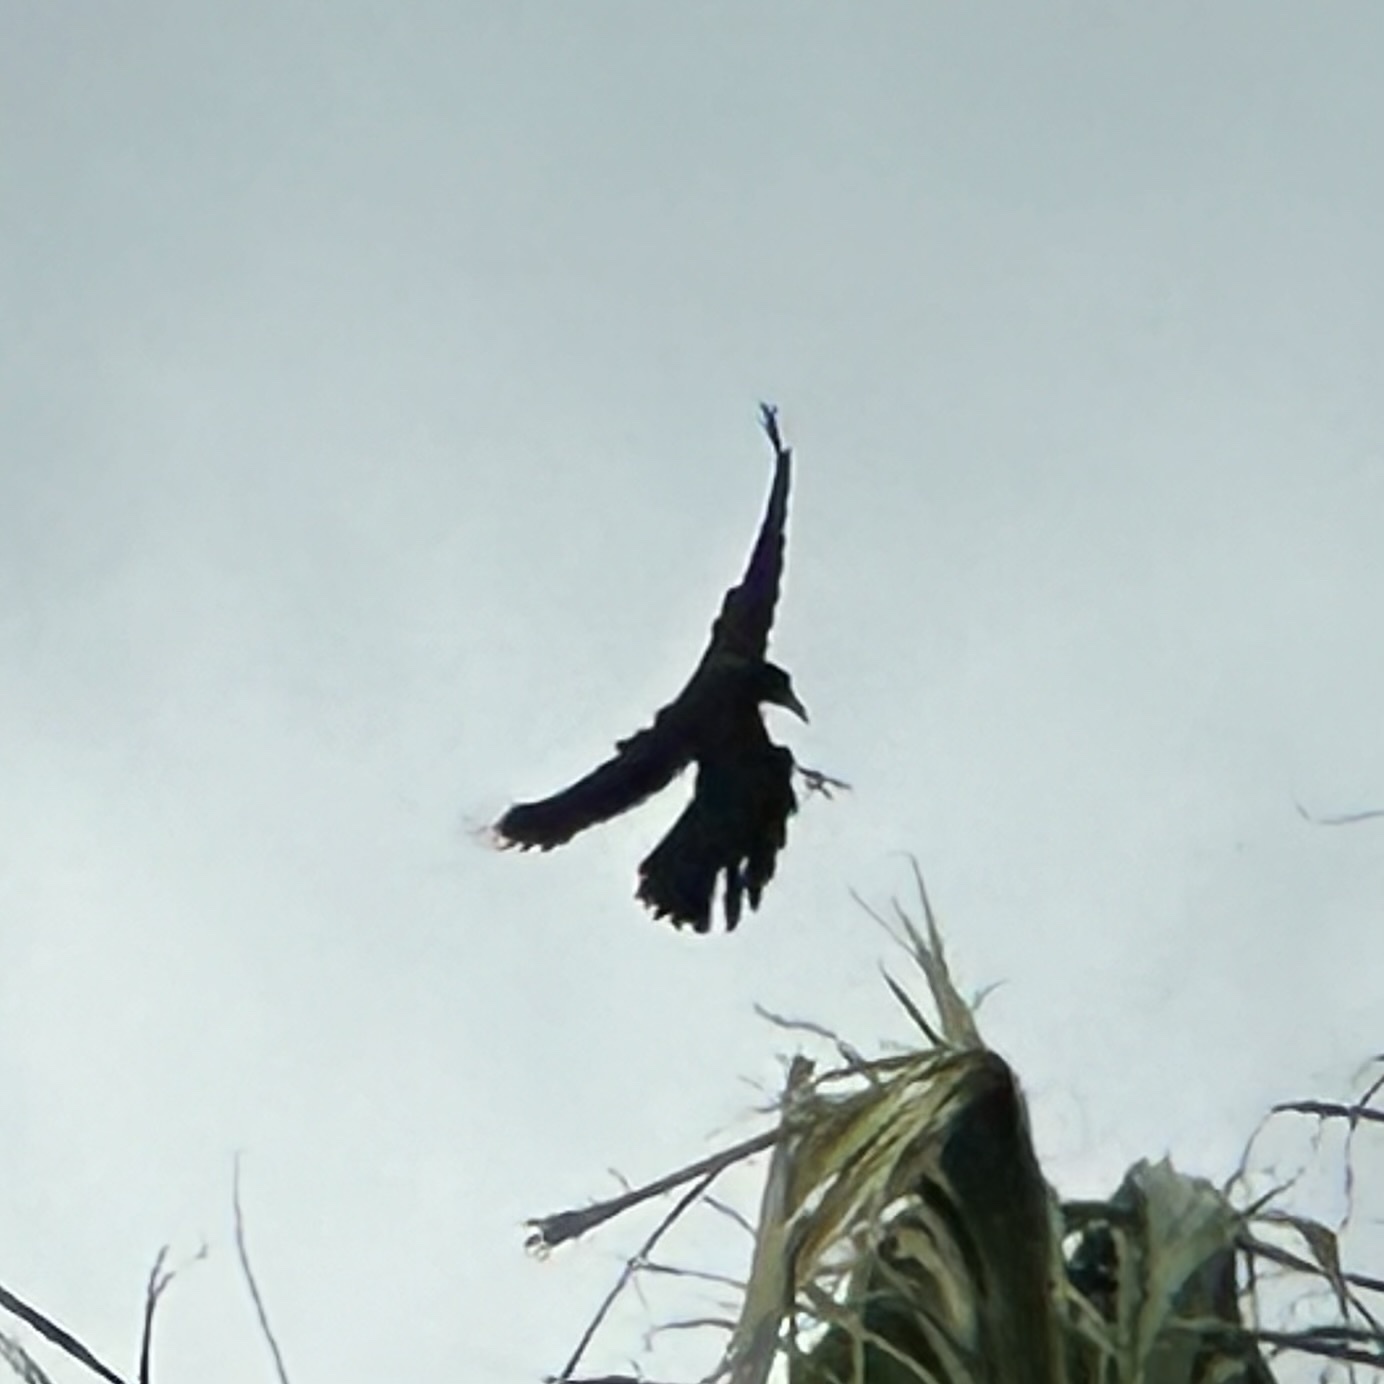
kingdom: Animalia
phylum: Chordata
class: Aves
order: Passeriformes
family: Icteridae
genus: Quiscalus
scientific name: Quiscalus mexicanus
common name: Great-tailed grackle
